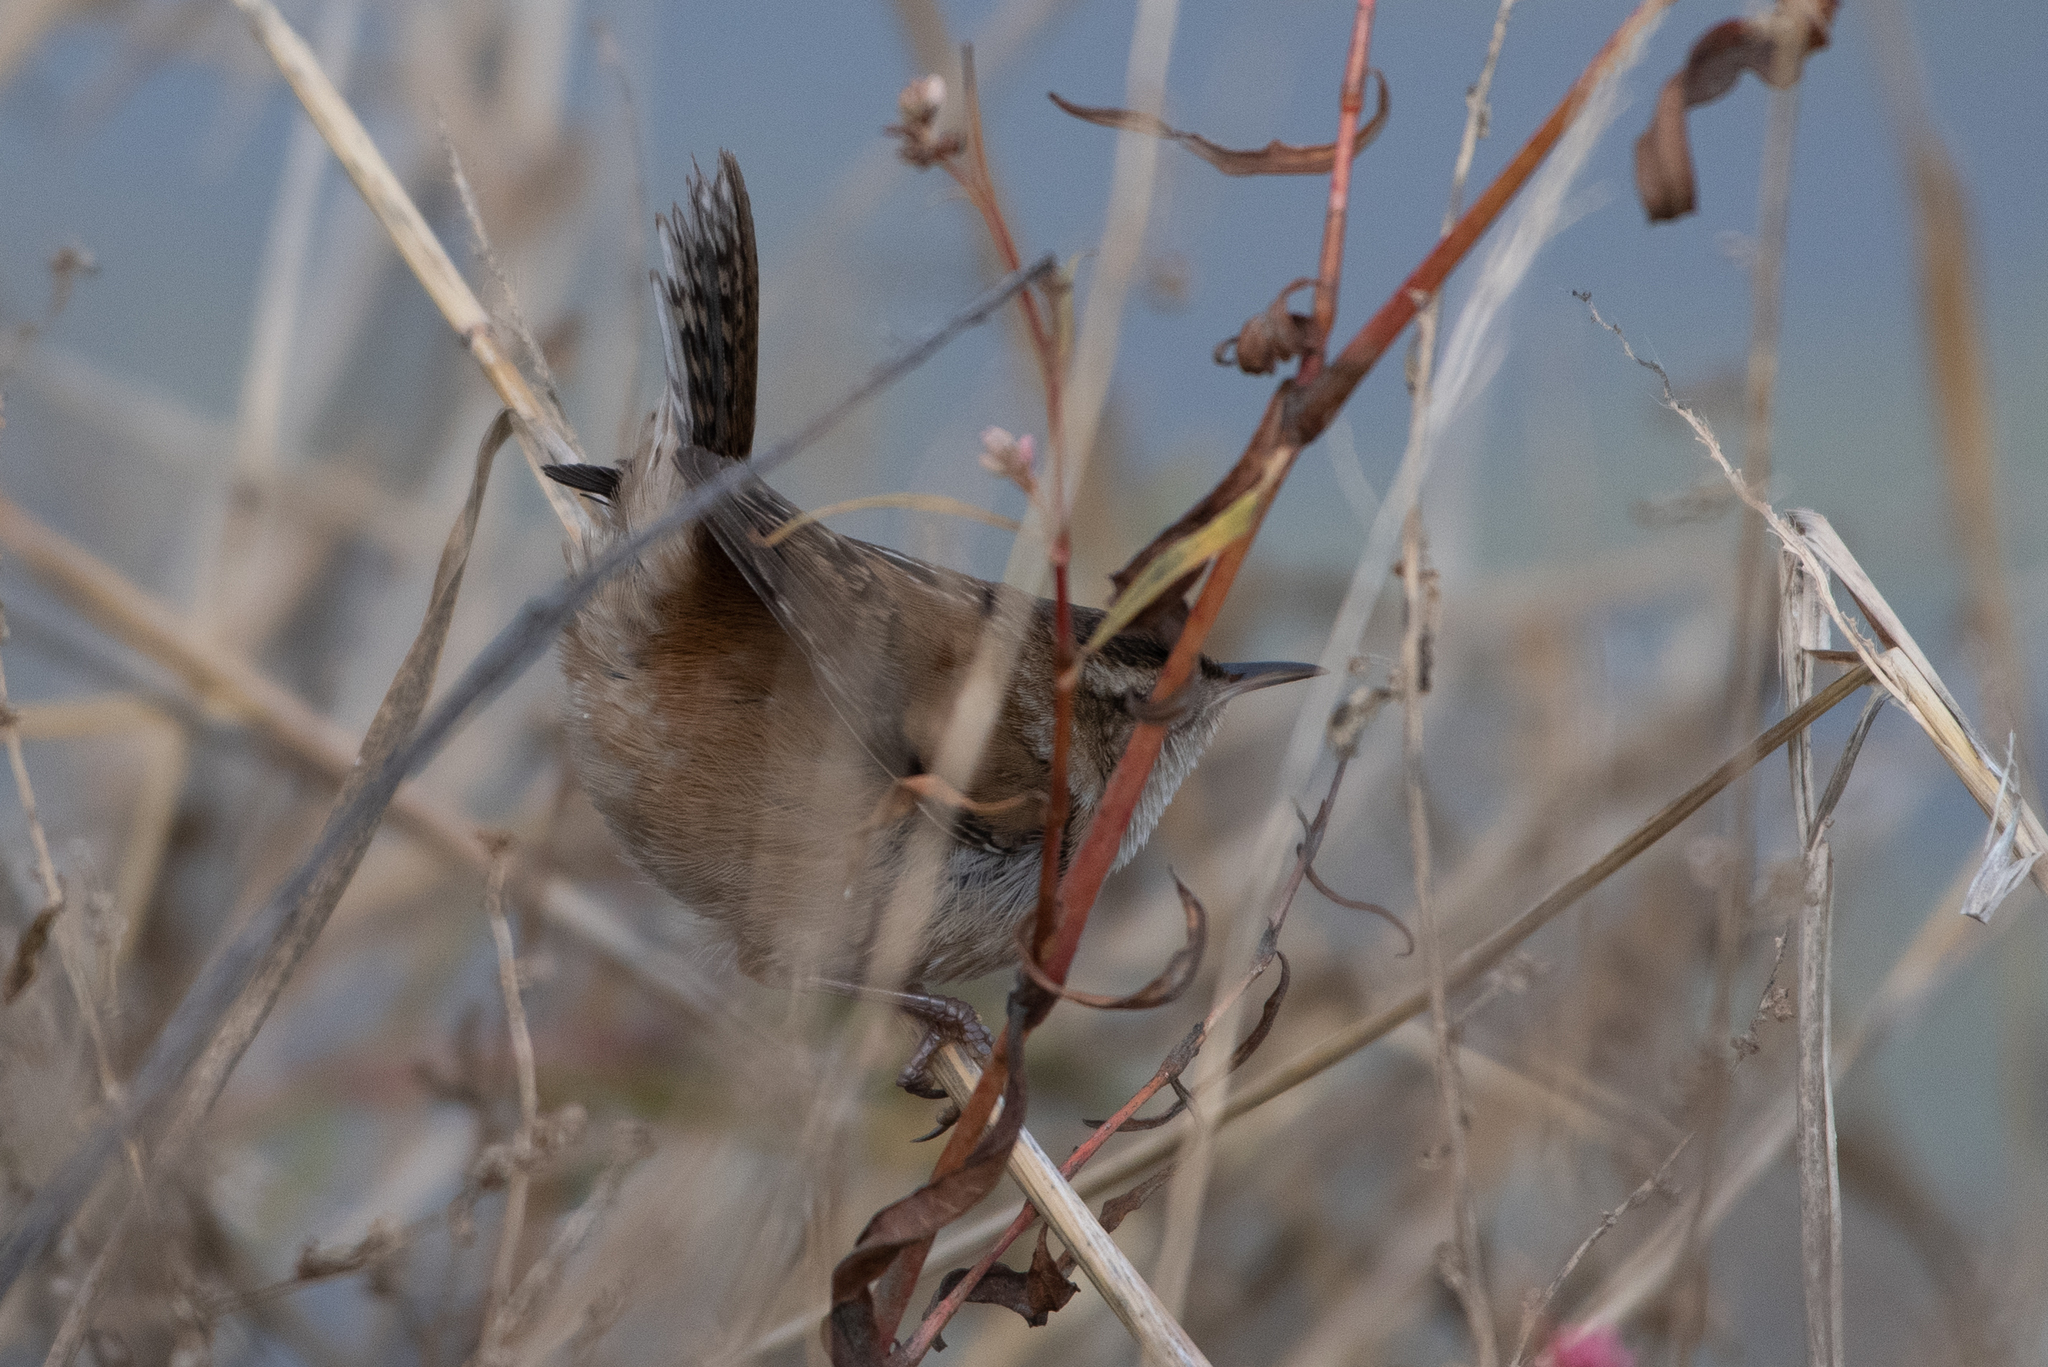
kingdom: Animalia
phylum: Chordata
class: Aves
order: Passeriformes
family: Troglodytidae
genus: Cistothorus
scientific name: Cistothorus palustris
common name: Marsh wren
